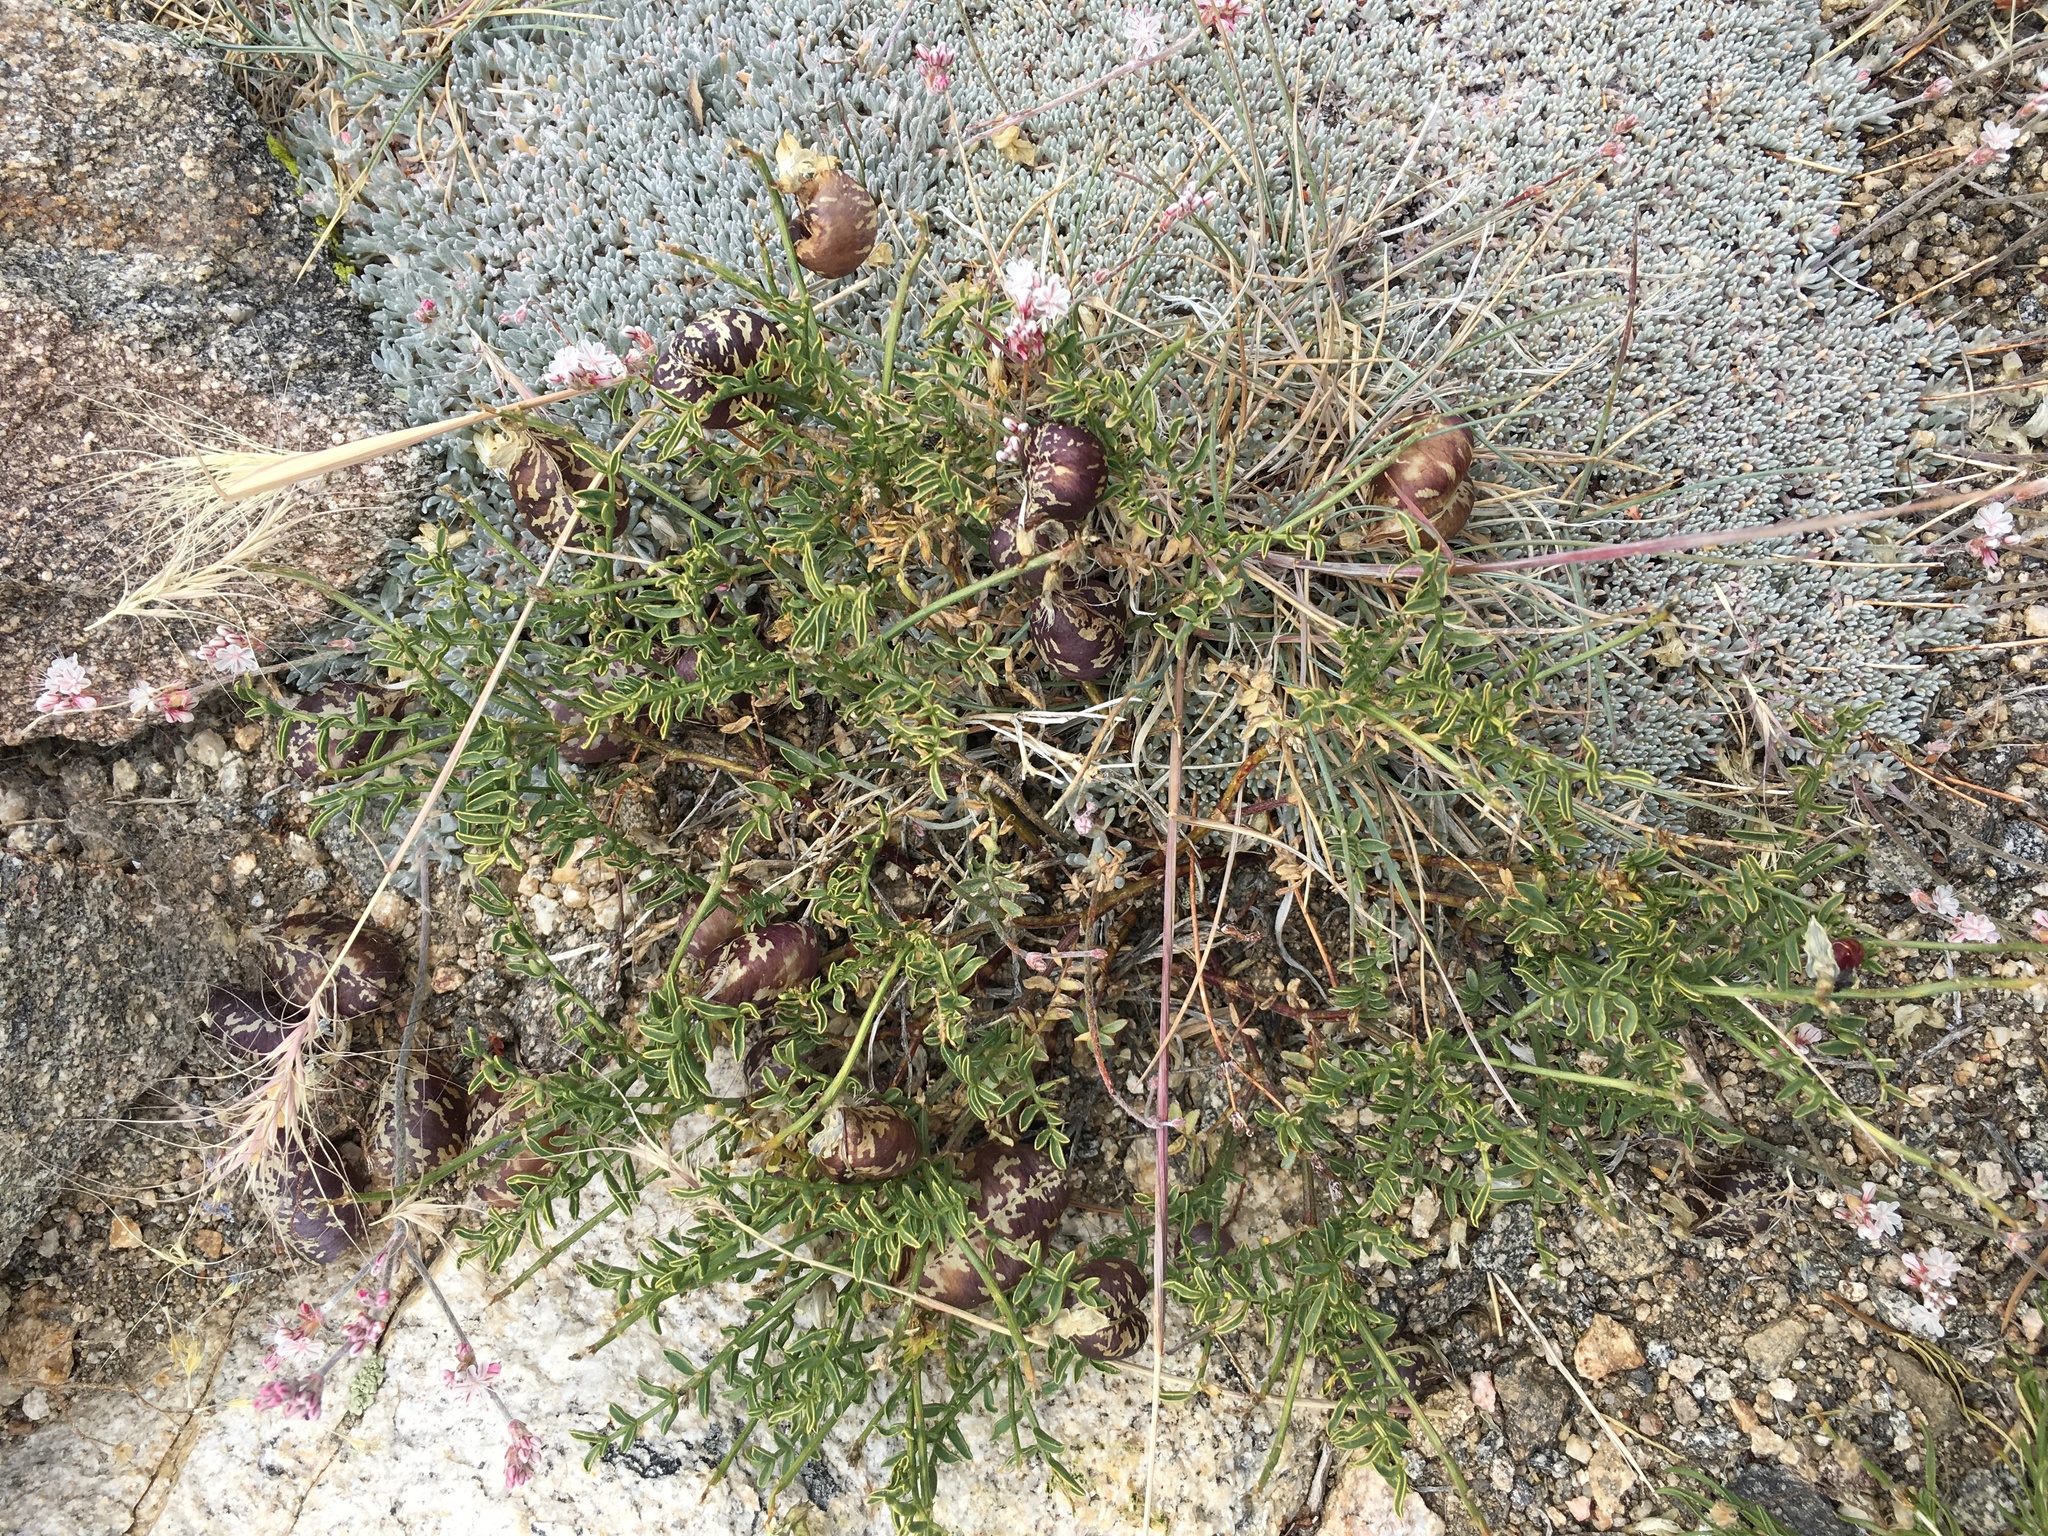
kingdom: Plantae
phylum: Tracheophyta
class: Magnoliopsida
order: Fabales
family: Fabaceae
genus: Astragalus
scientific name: Astragalus whitneyi
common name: Balloonpod milkvetch
